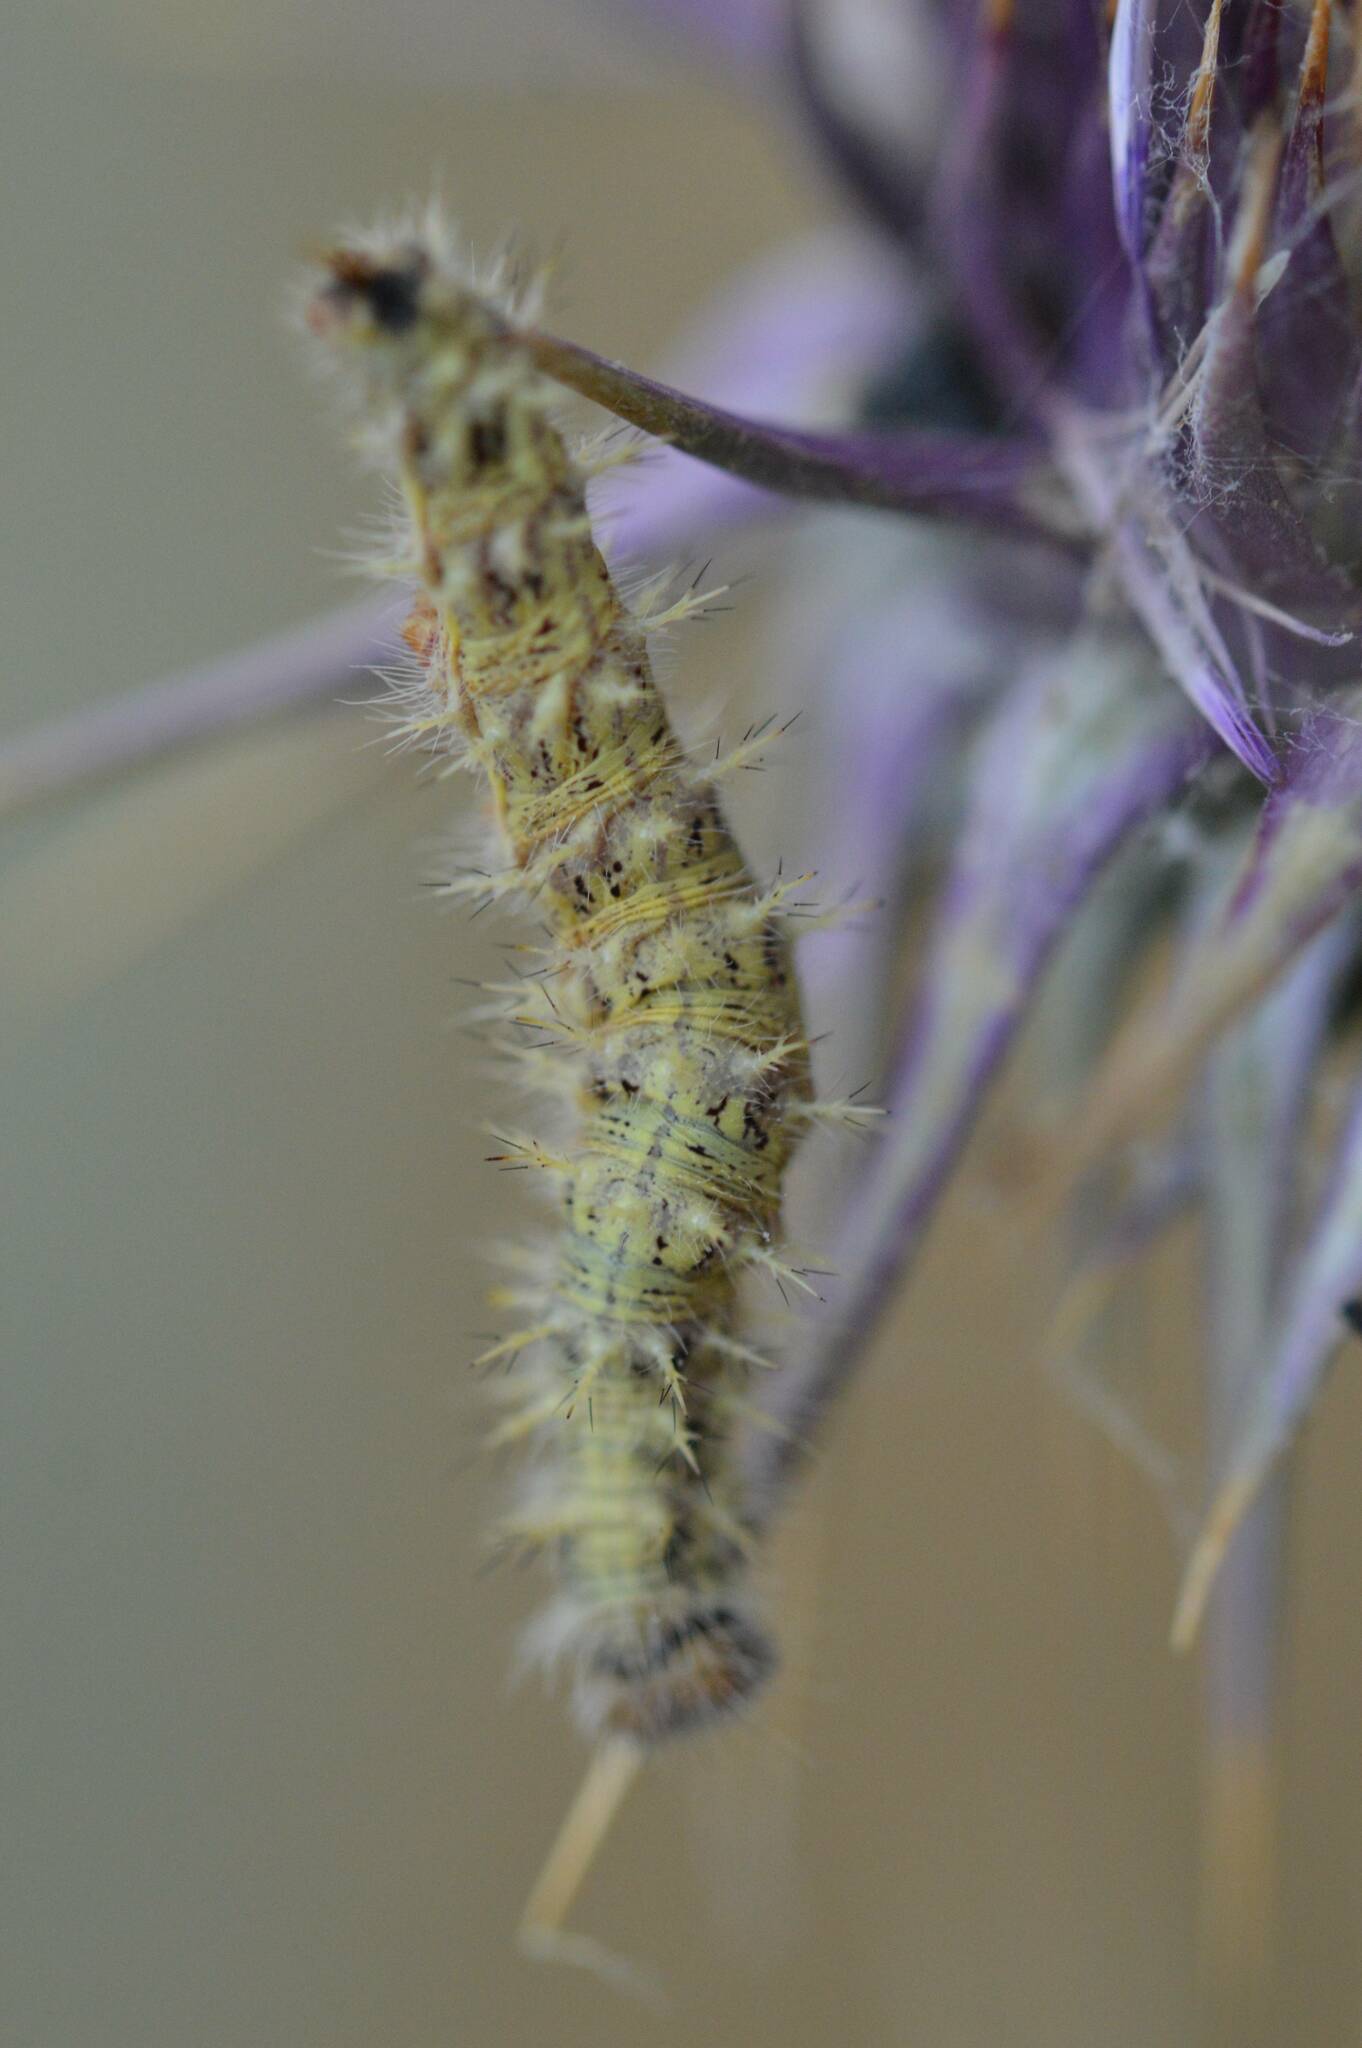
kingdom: Animalia
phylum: Arthropoda
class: Insecta
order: Lepidoptera
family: Nymphalidae
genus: Vanessa
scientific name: Vanessa cardui
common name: Painted lady
